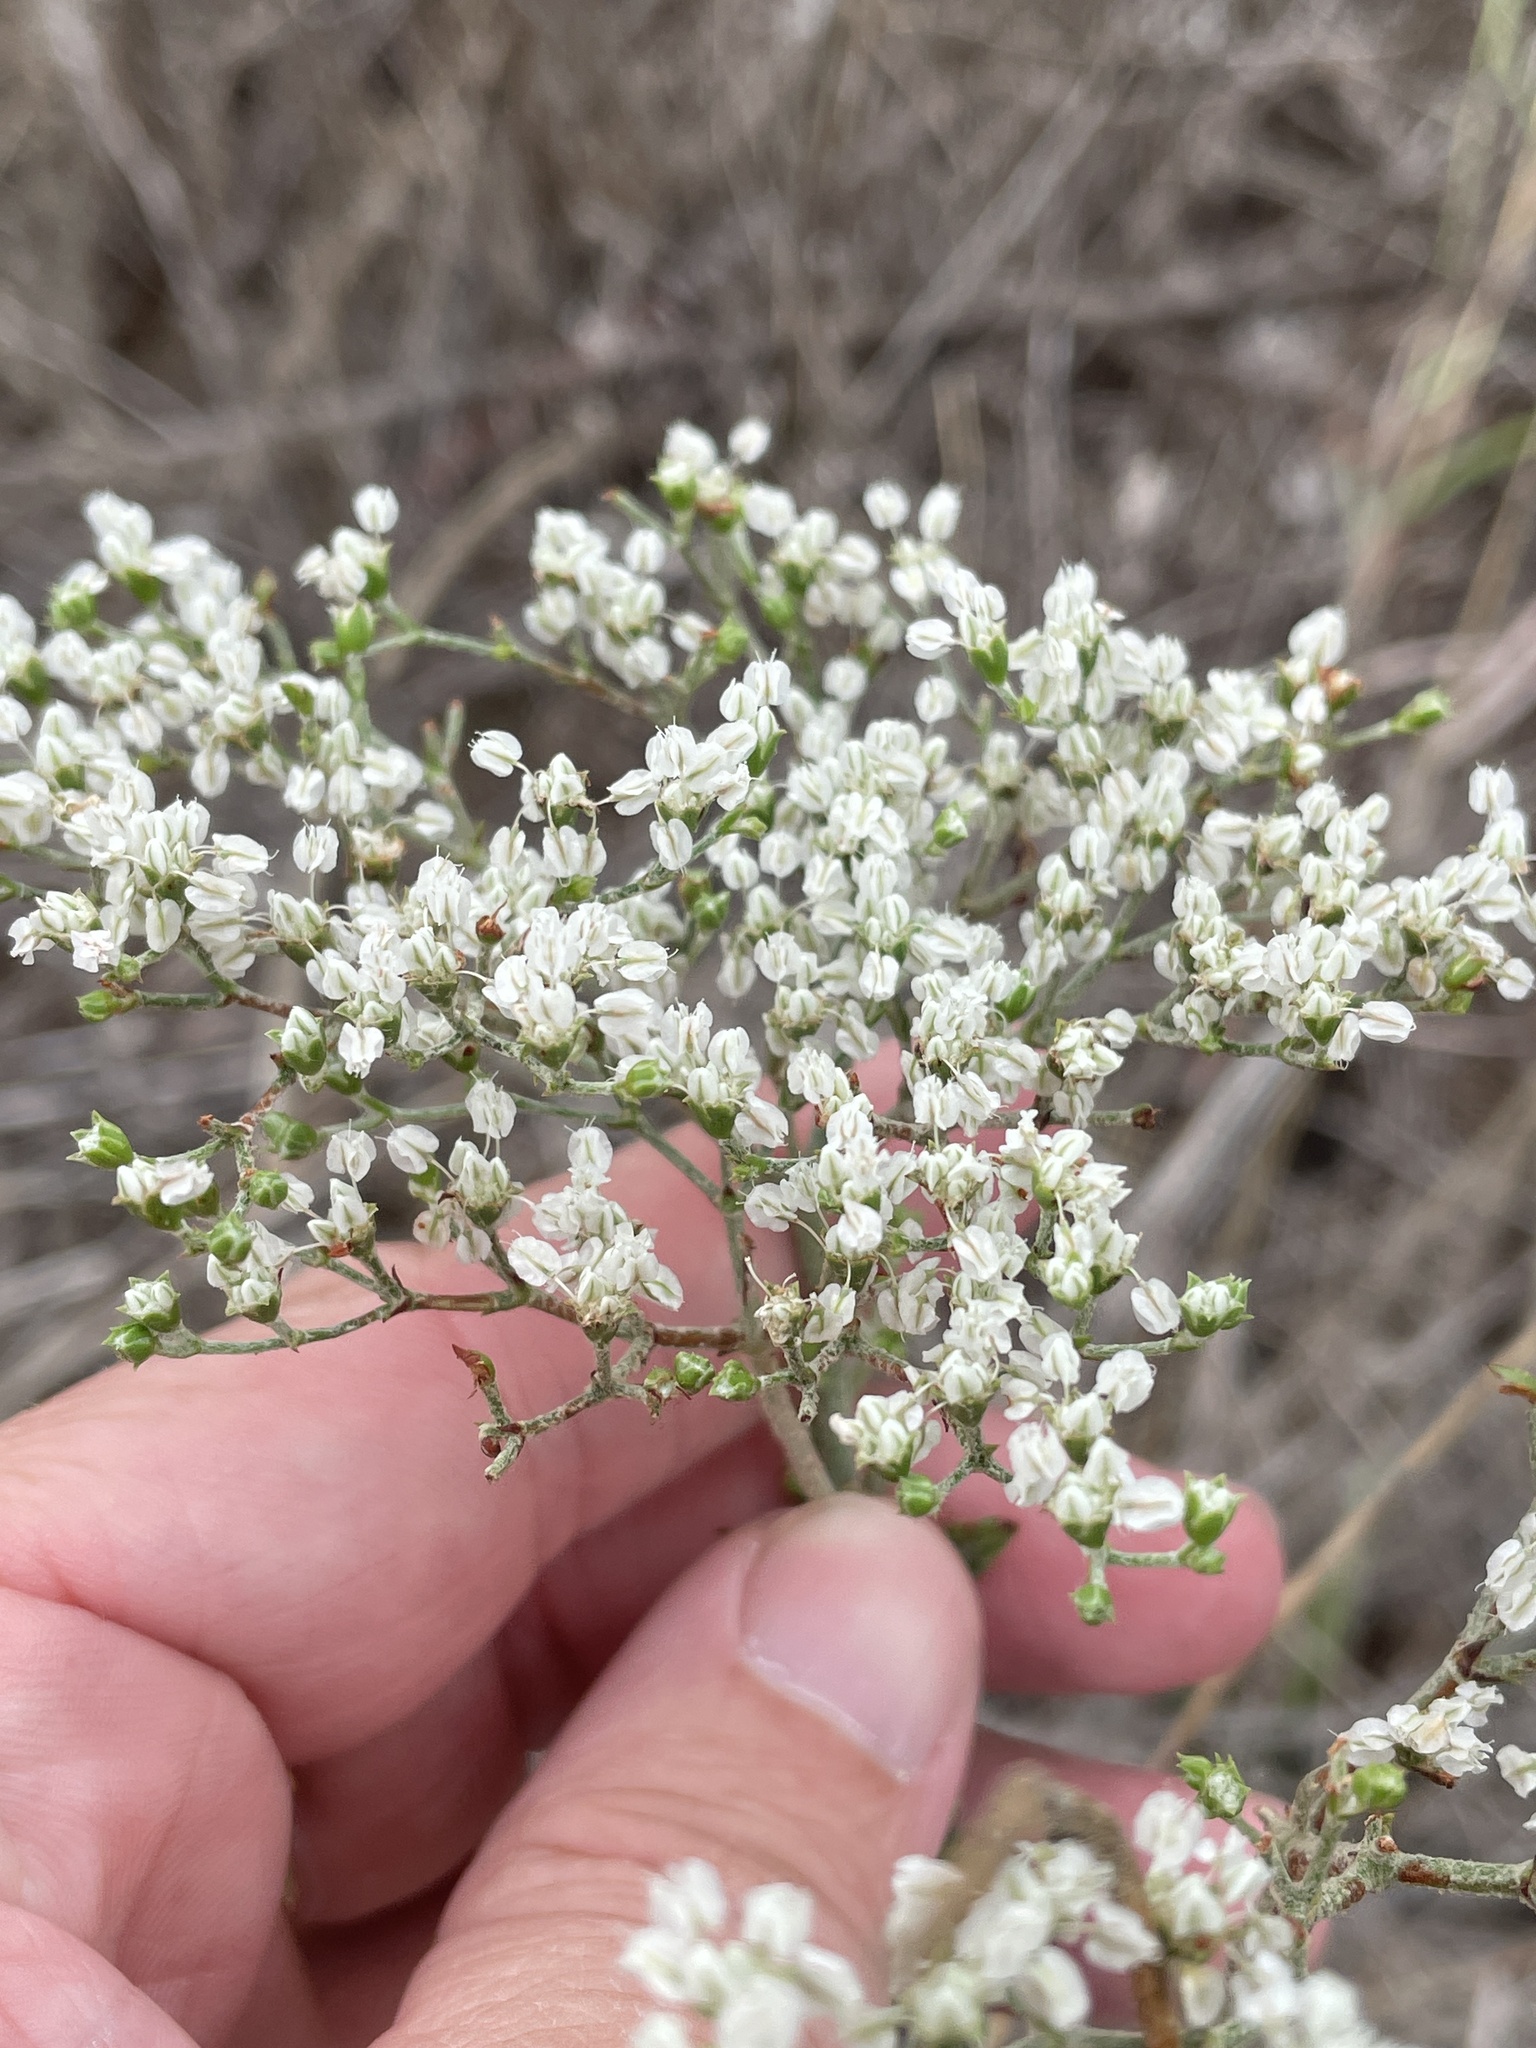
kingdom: Plantae
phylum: Tracheophyta
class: Magnoliopsida
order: Caryophyllales
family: Polygonaceae
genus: Eriogonum
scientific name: Eriogonum multiflorum
